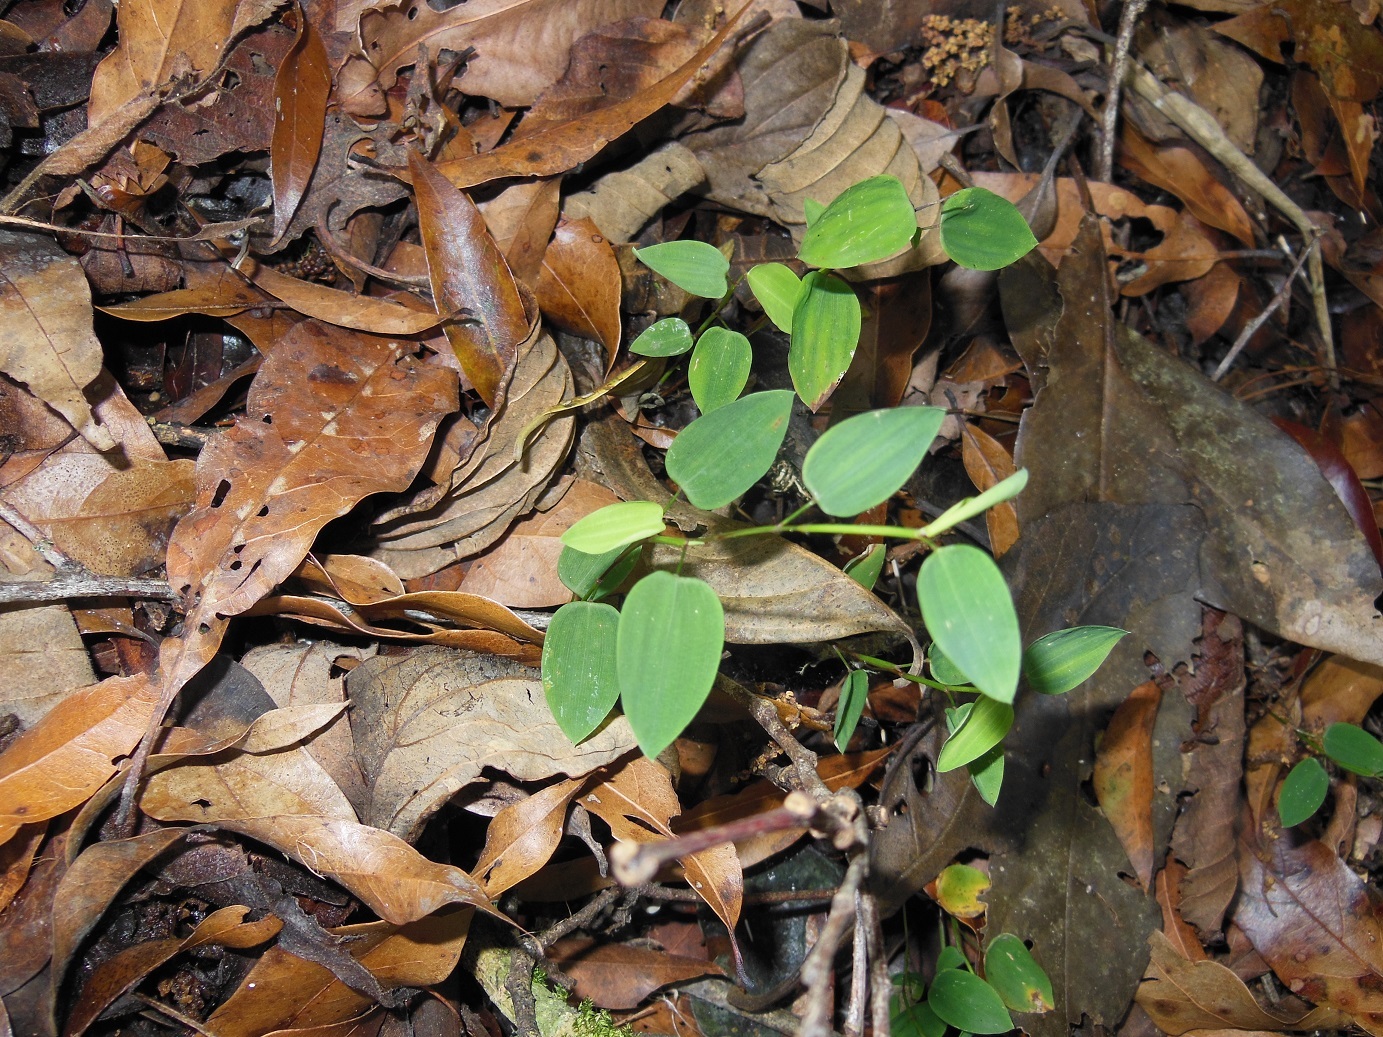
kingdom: Plantae
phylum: Tracheophyta
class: Liliopsida
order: Poales
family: Poaceae
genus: Zeugites
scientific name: Zeugites americanus
